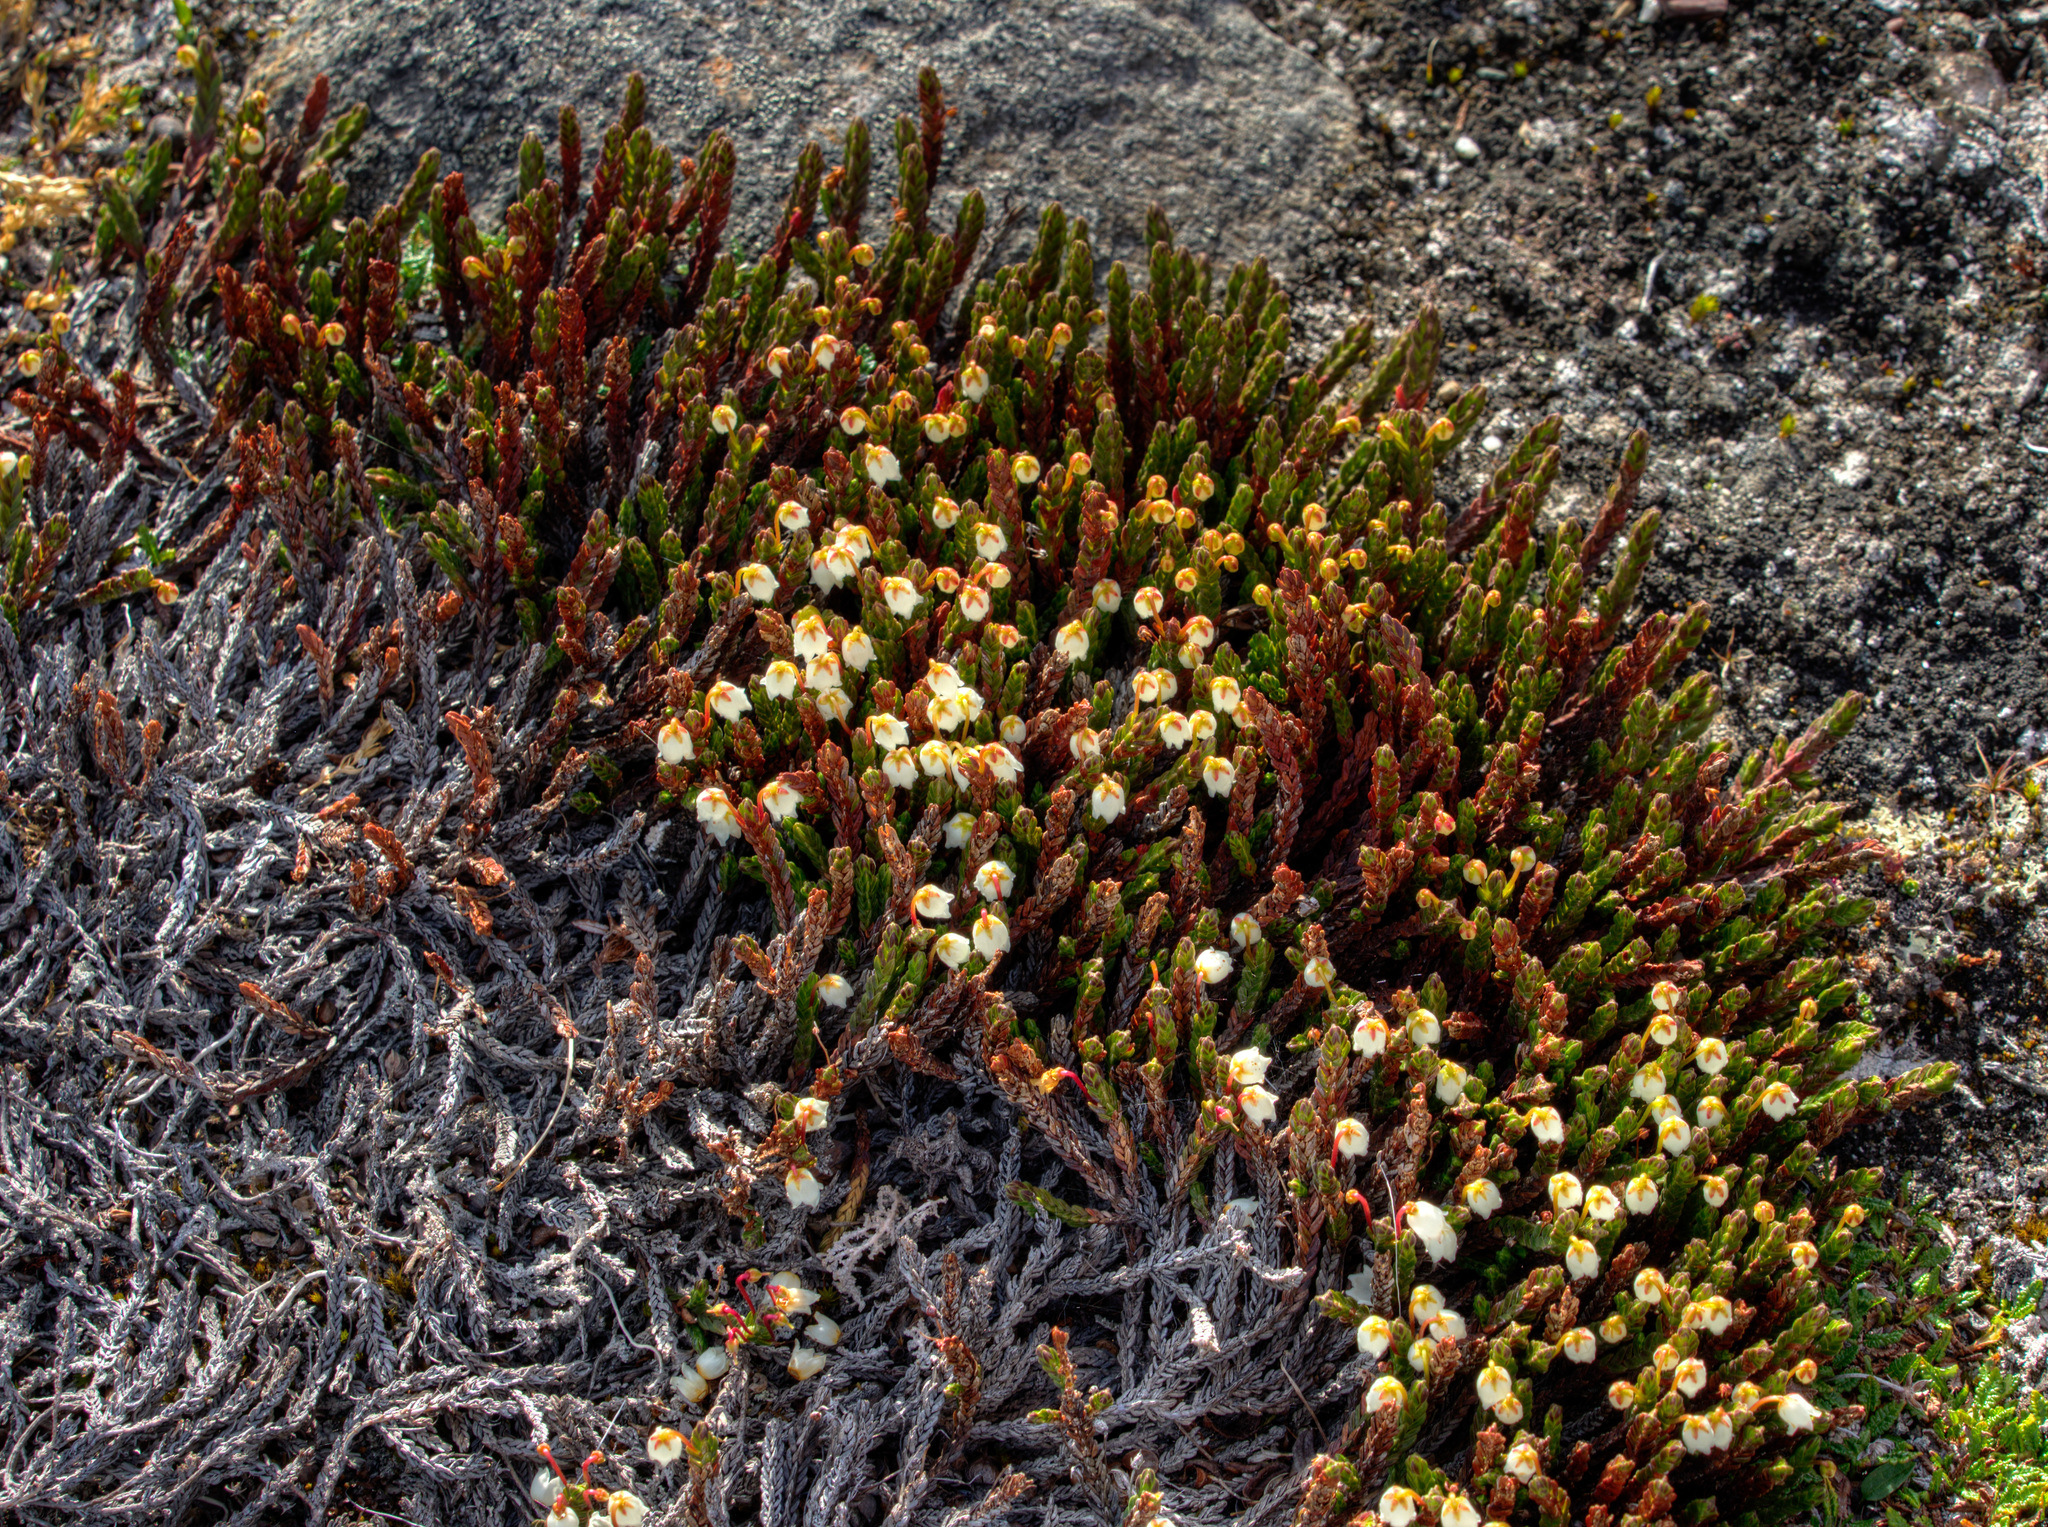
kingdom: Plantae
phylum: Tracheophyta
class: Magnoliopsida
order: Ericales
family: Ericaceae
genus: Cassiope
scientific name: Cassiope tetragona
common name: Arctic bell heather
